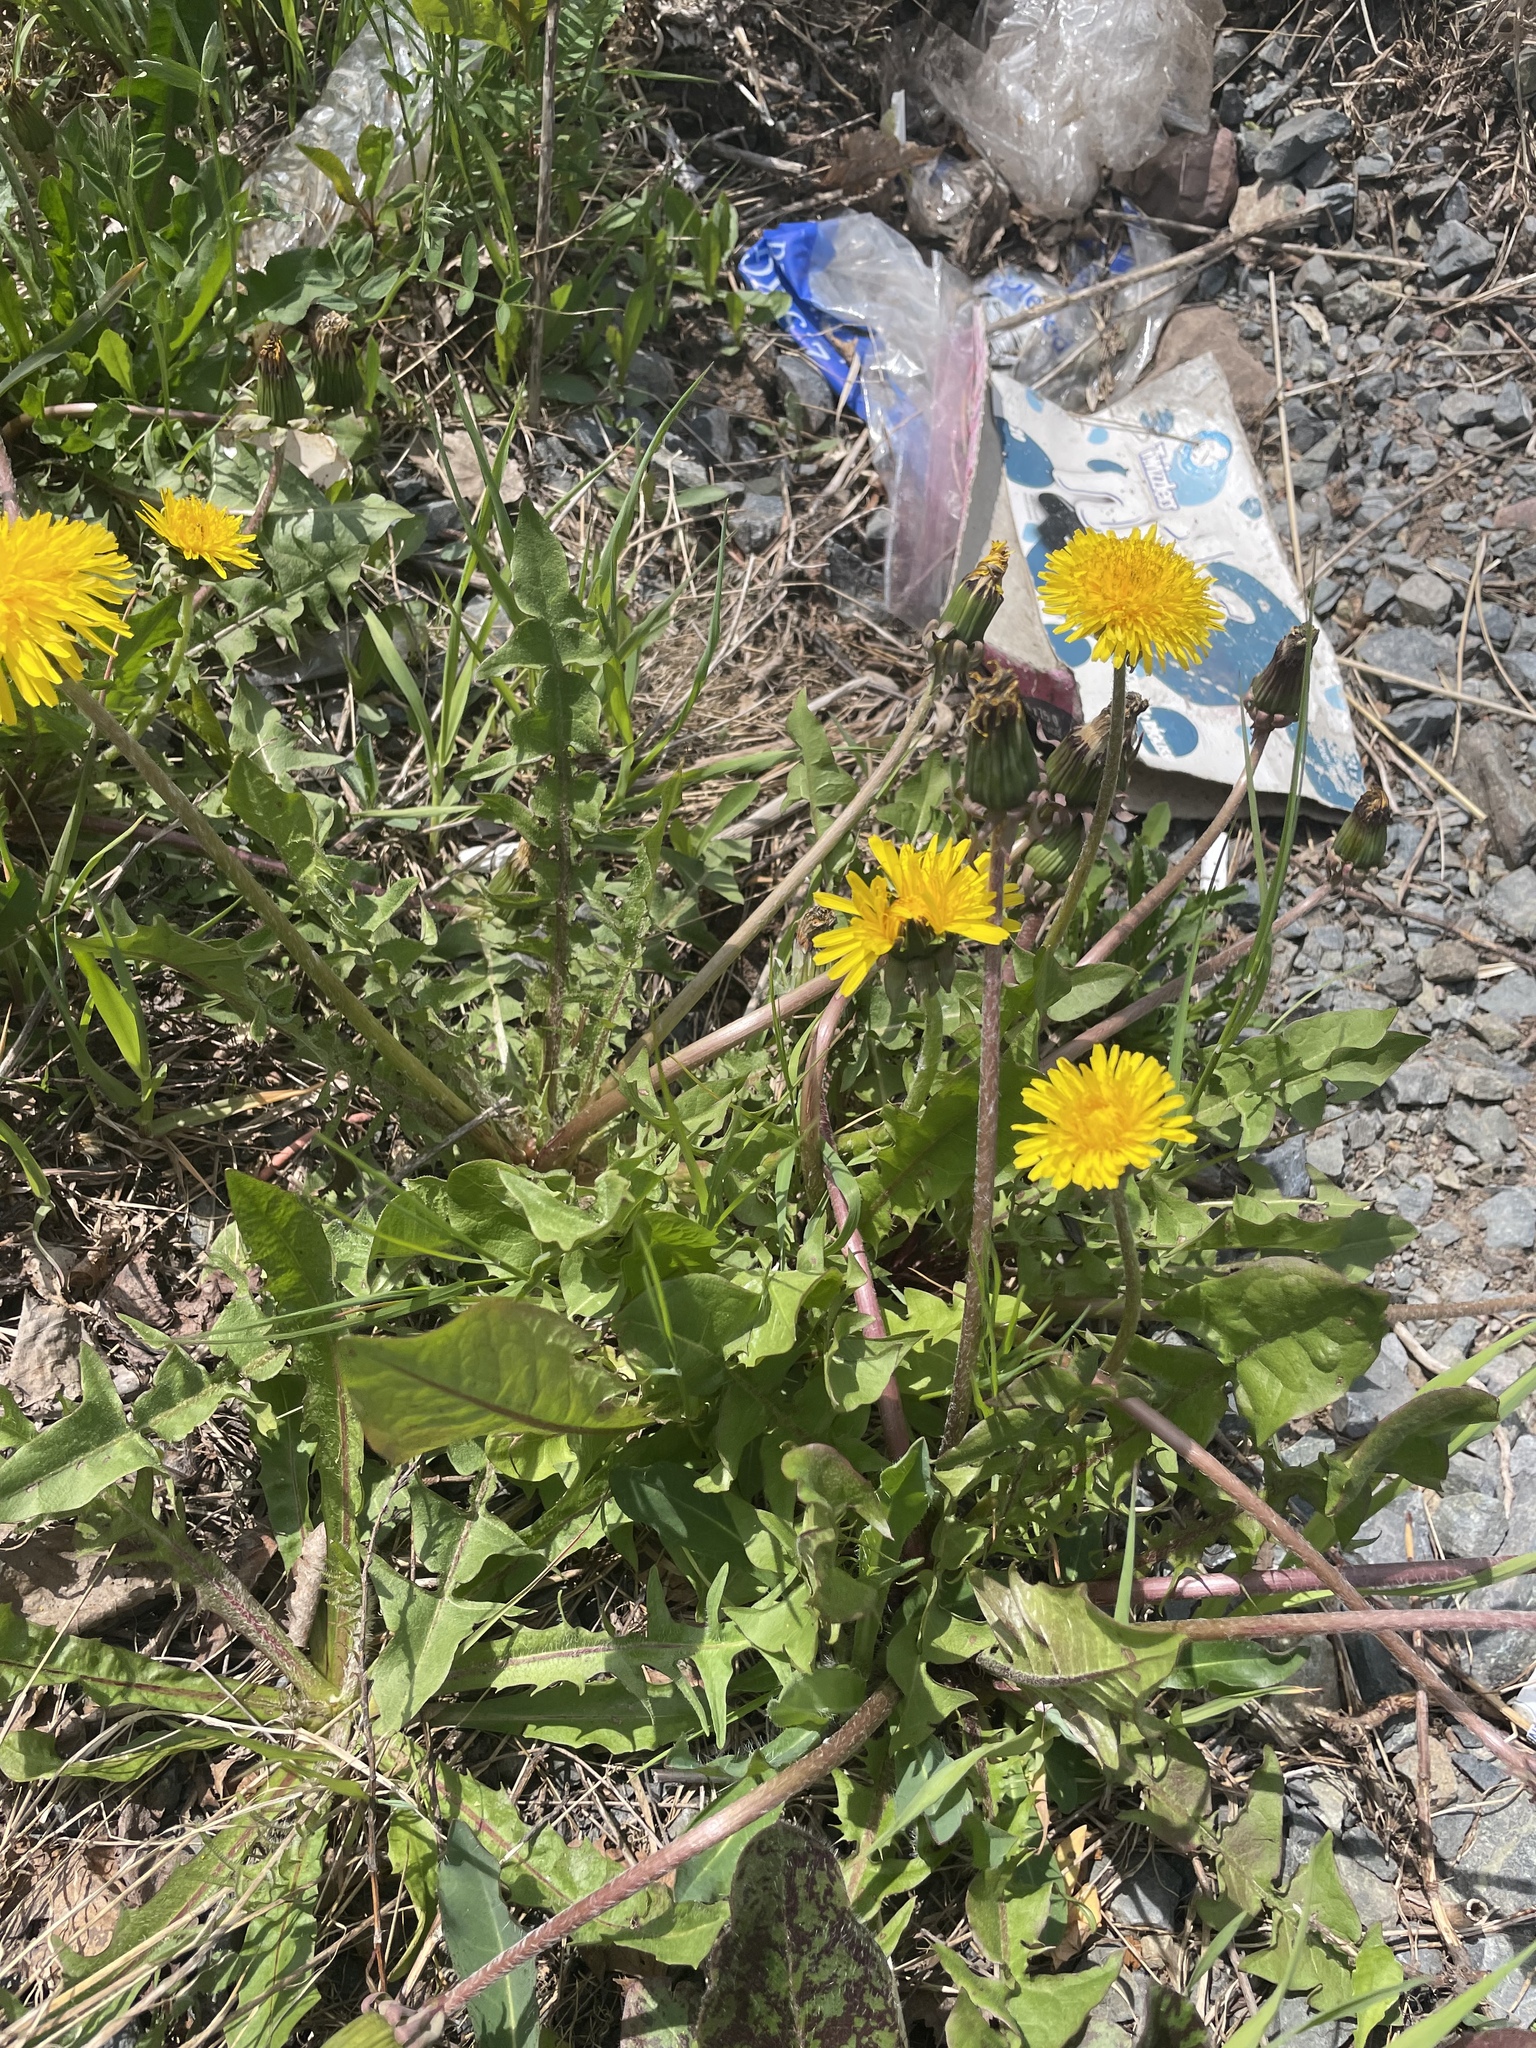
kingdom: Plantae
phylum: Tracheophyta
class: Magnoliopsida
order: Asterales
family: Asteraceae
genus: Taraxacum
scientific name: Taraxacum officinale
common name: Common dandelion
